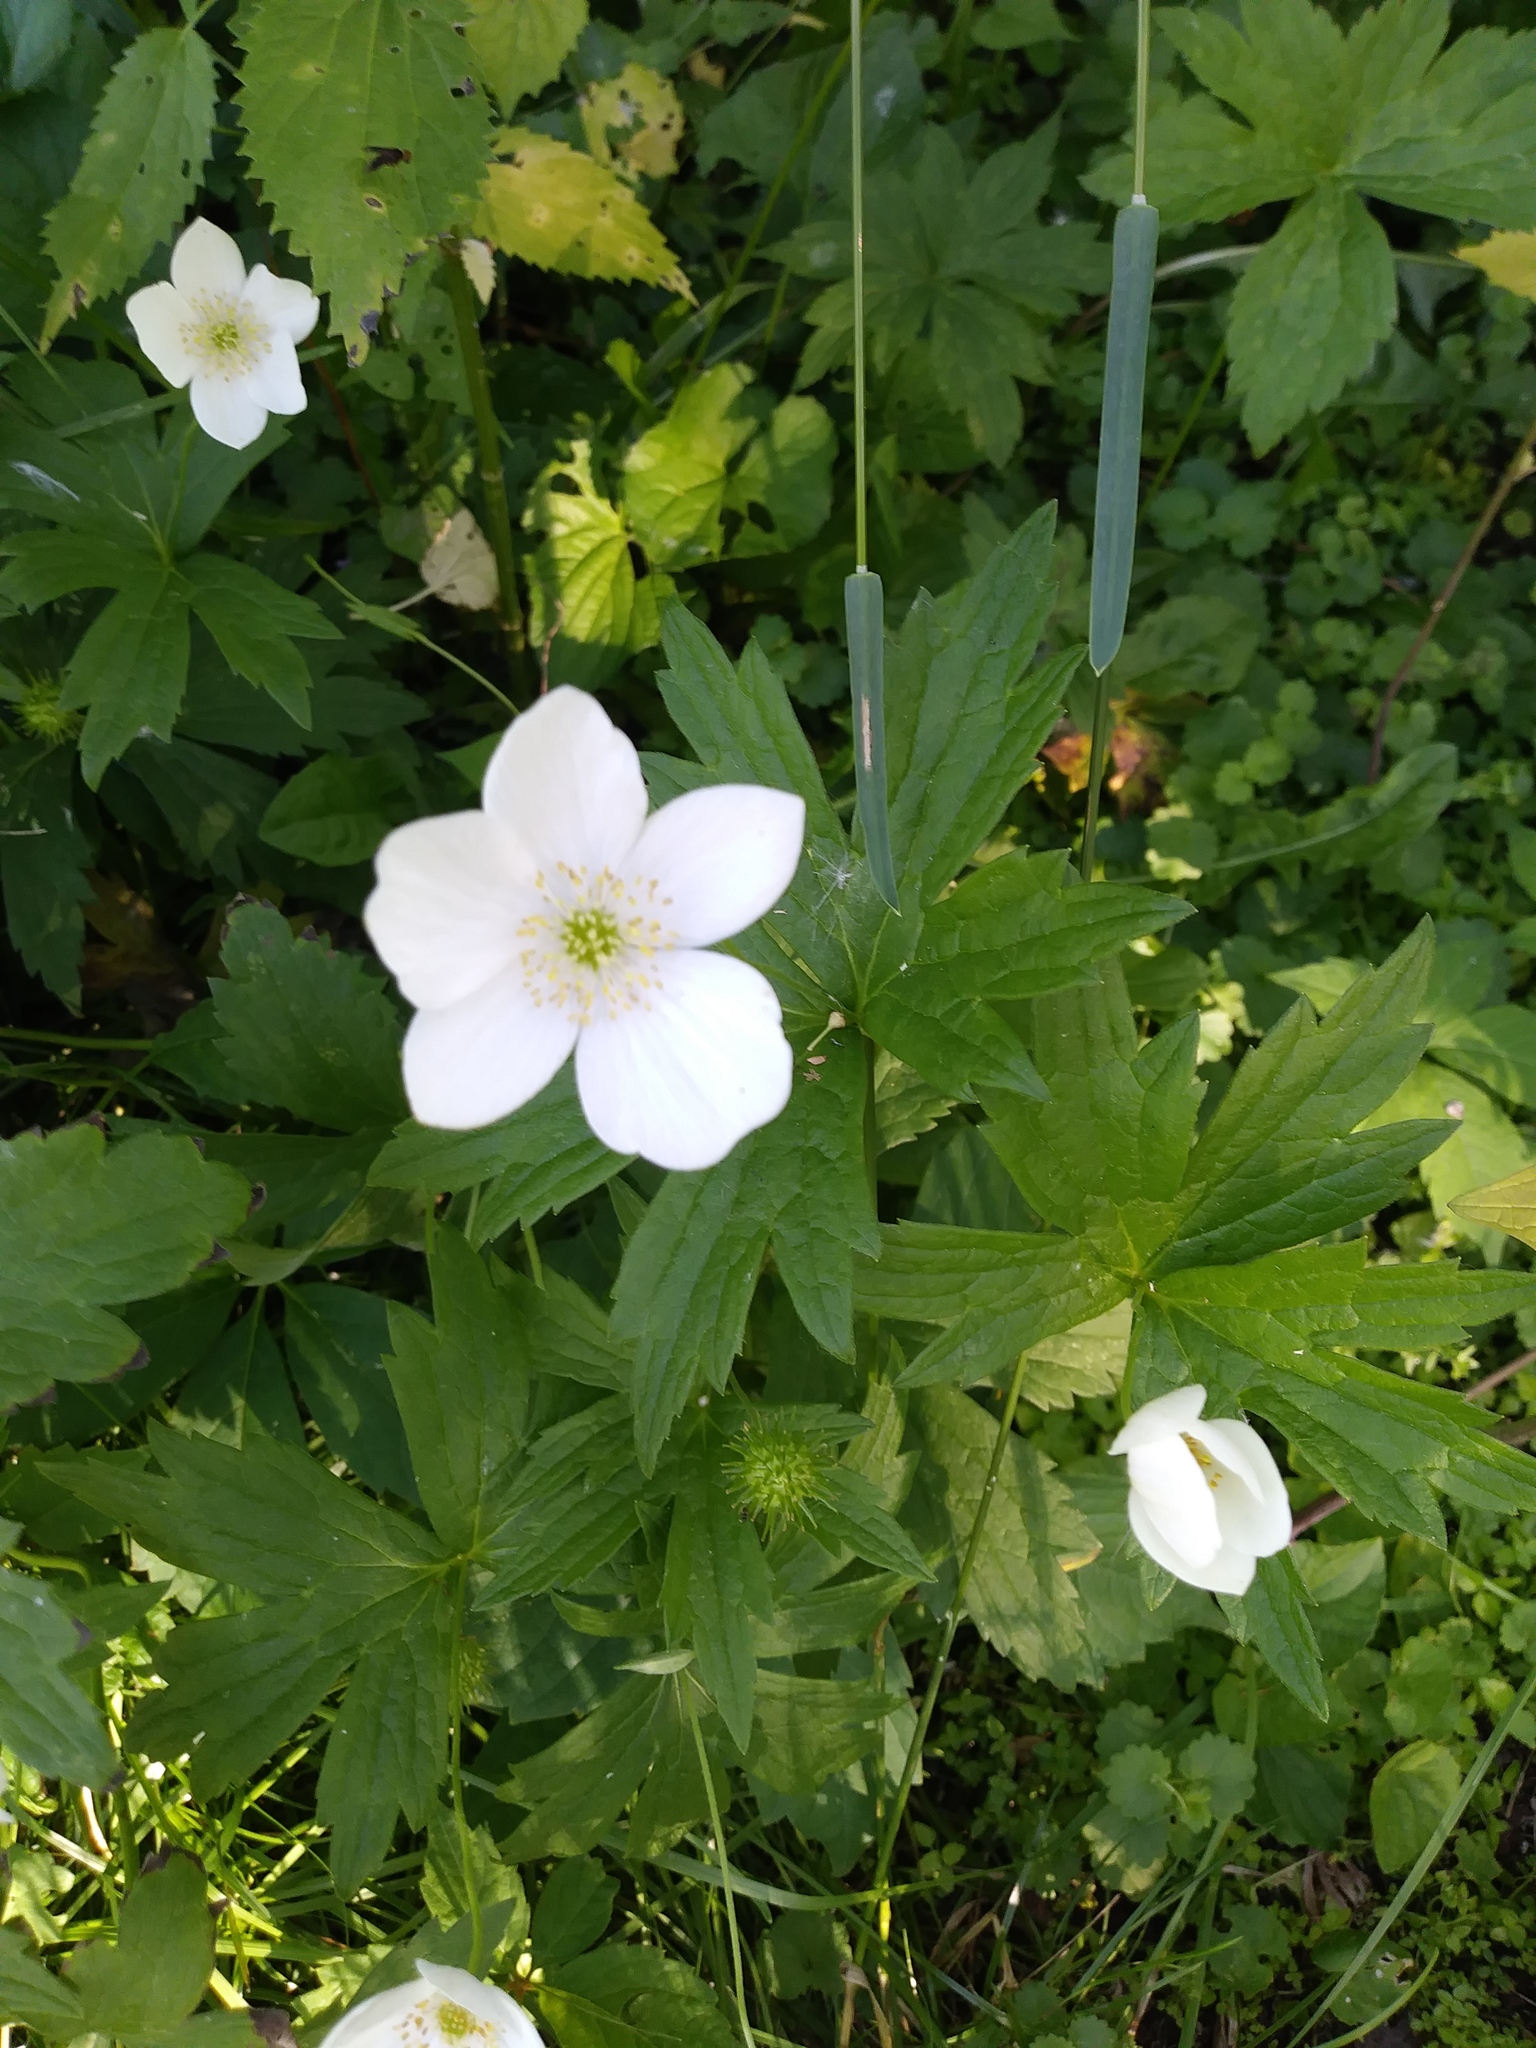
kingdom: Plantae
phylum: Tracheophyta
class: Magnoliopsida
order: Ranunculales
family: Ranunculaceae
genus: Anemonastrum
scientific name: Anemonastrum canadense
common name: Canada anemone
